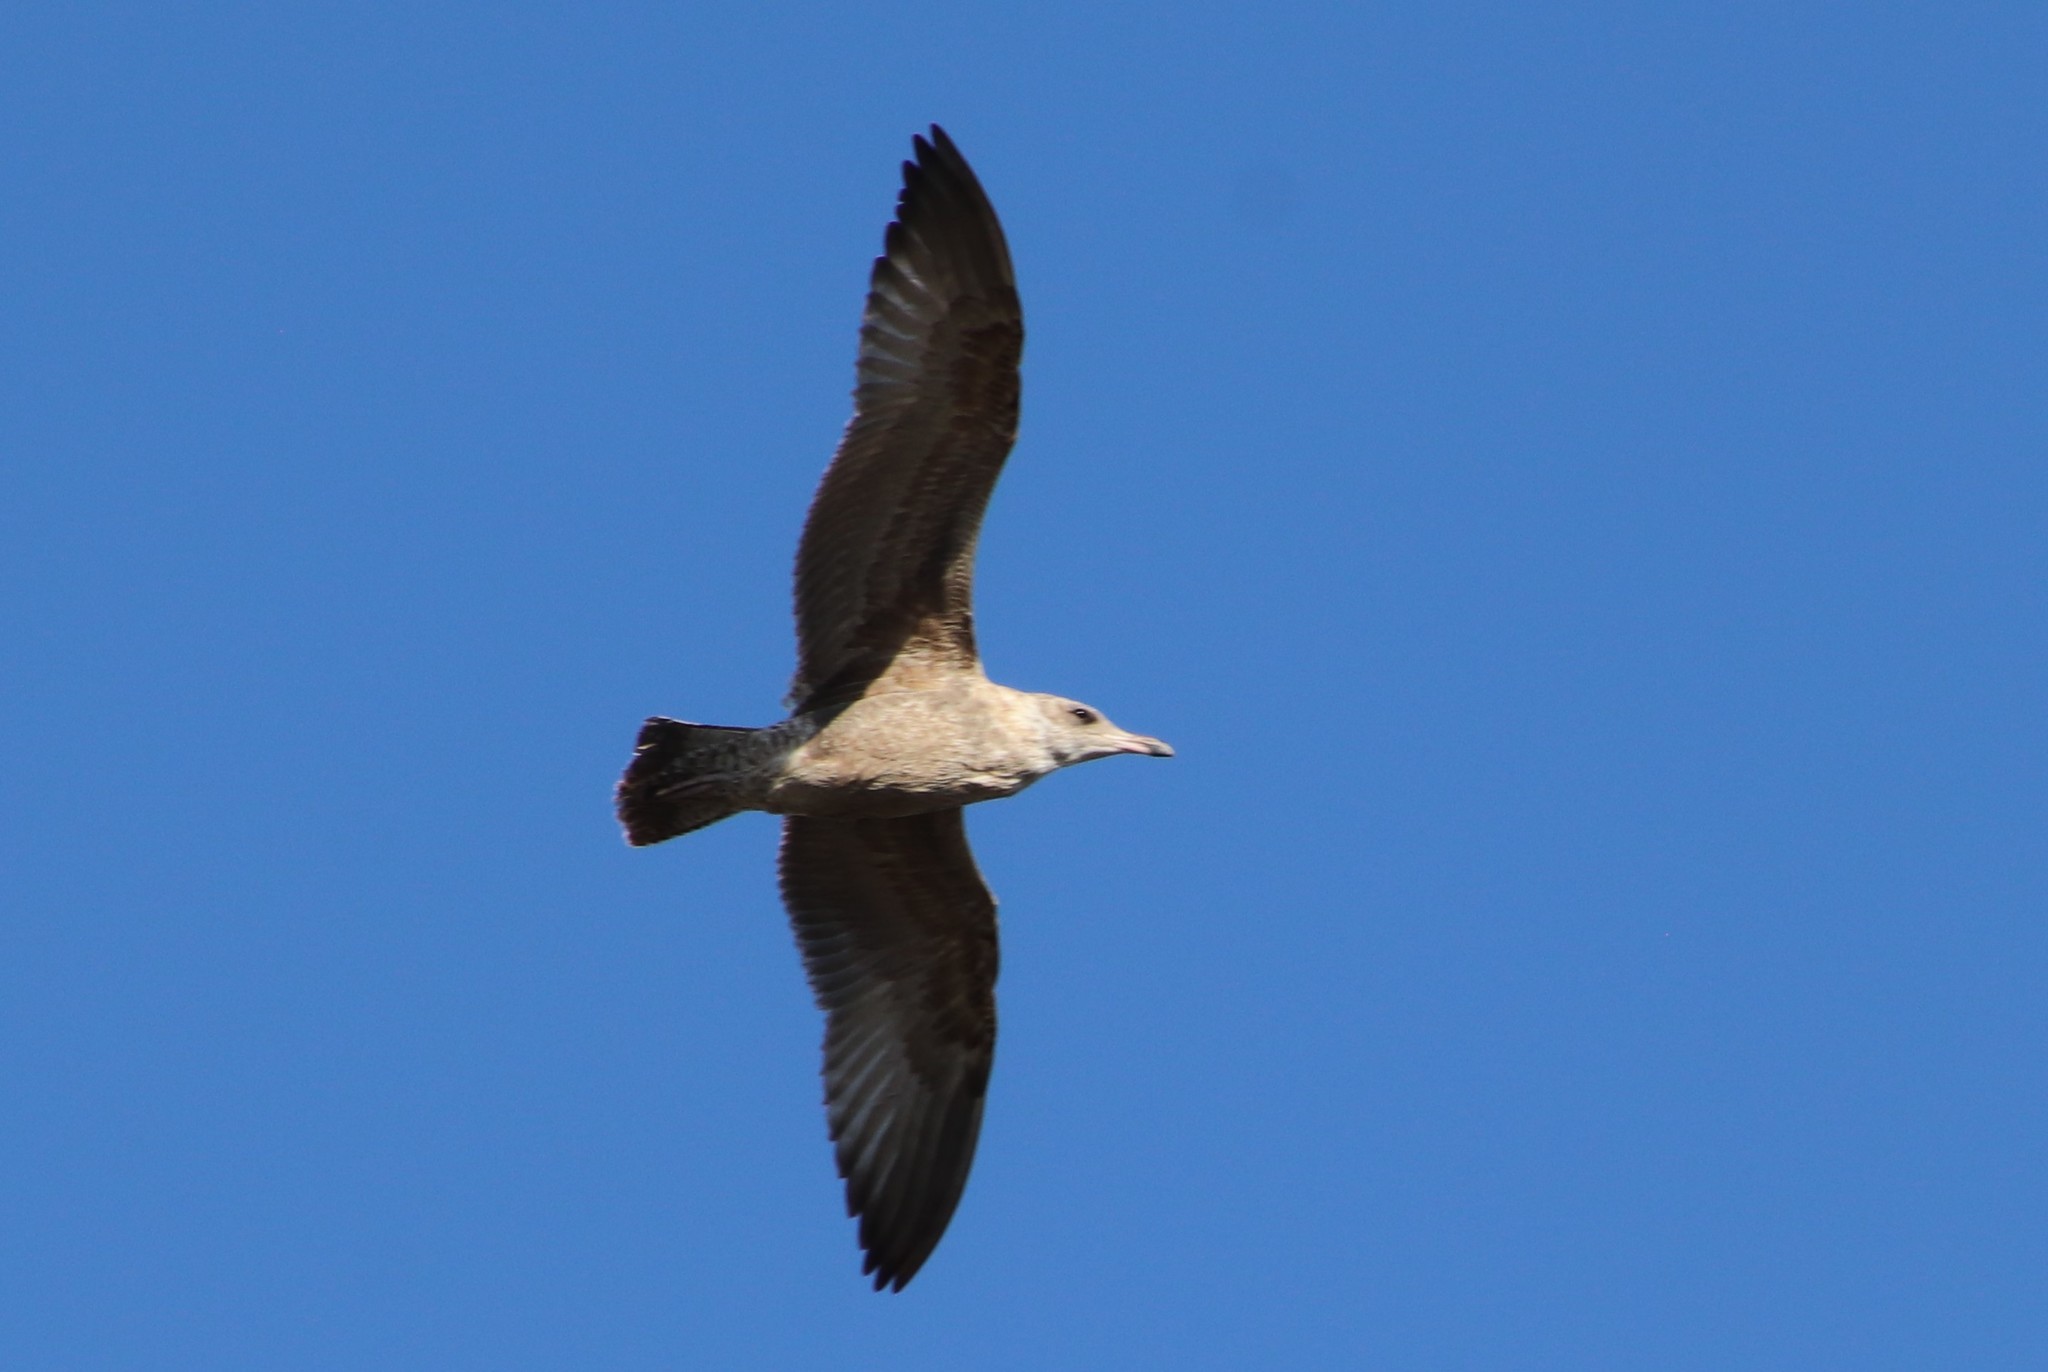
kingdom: Animalia
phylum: Chordata
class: Aves
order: Charadriiformes
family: Laridae
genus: Larus
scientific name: Larus occidentalis
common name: Western gull
